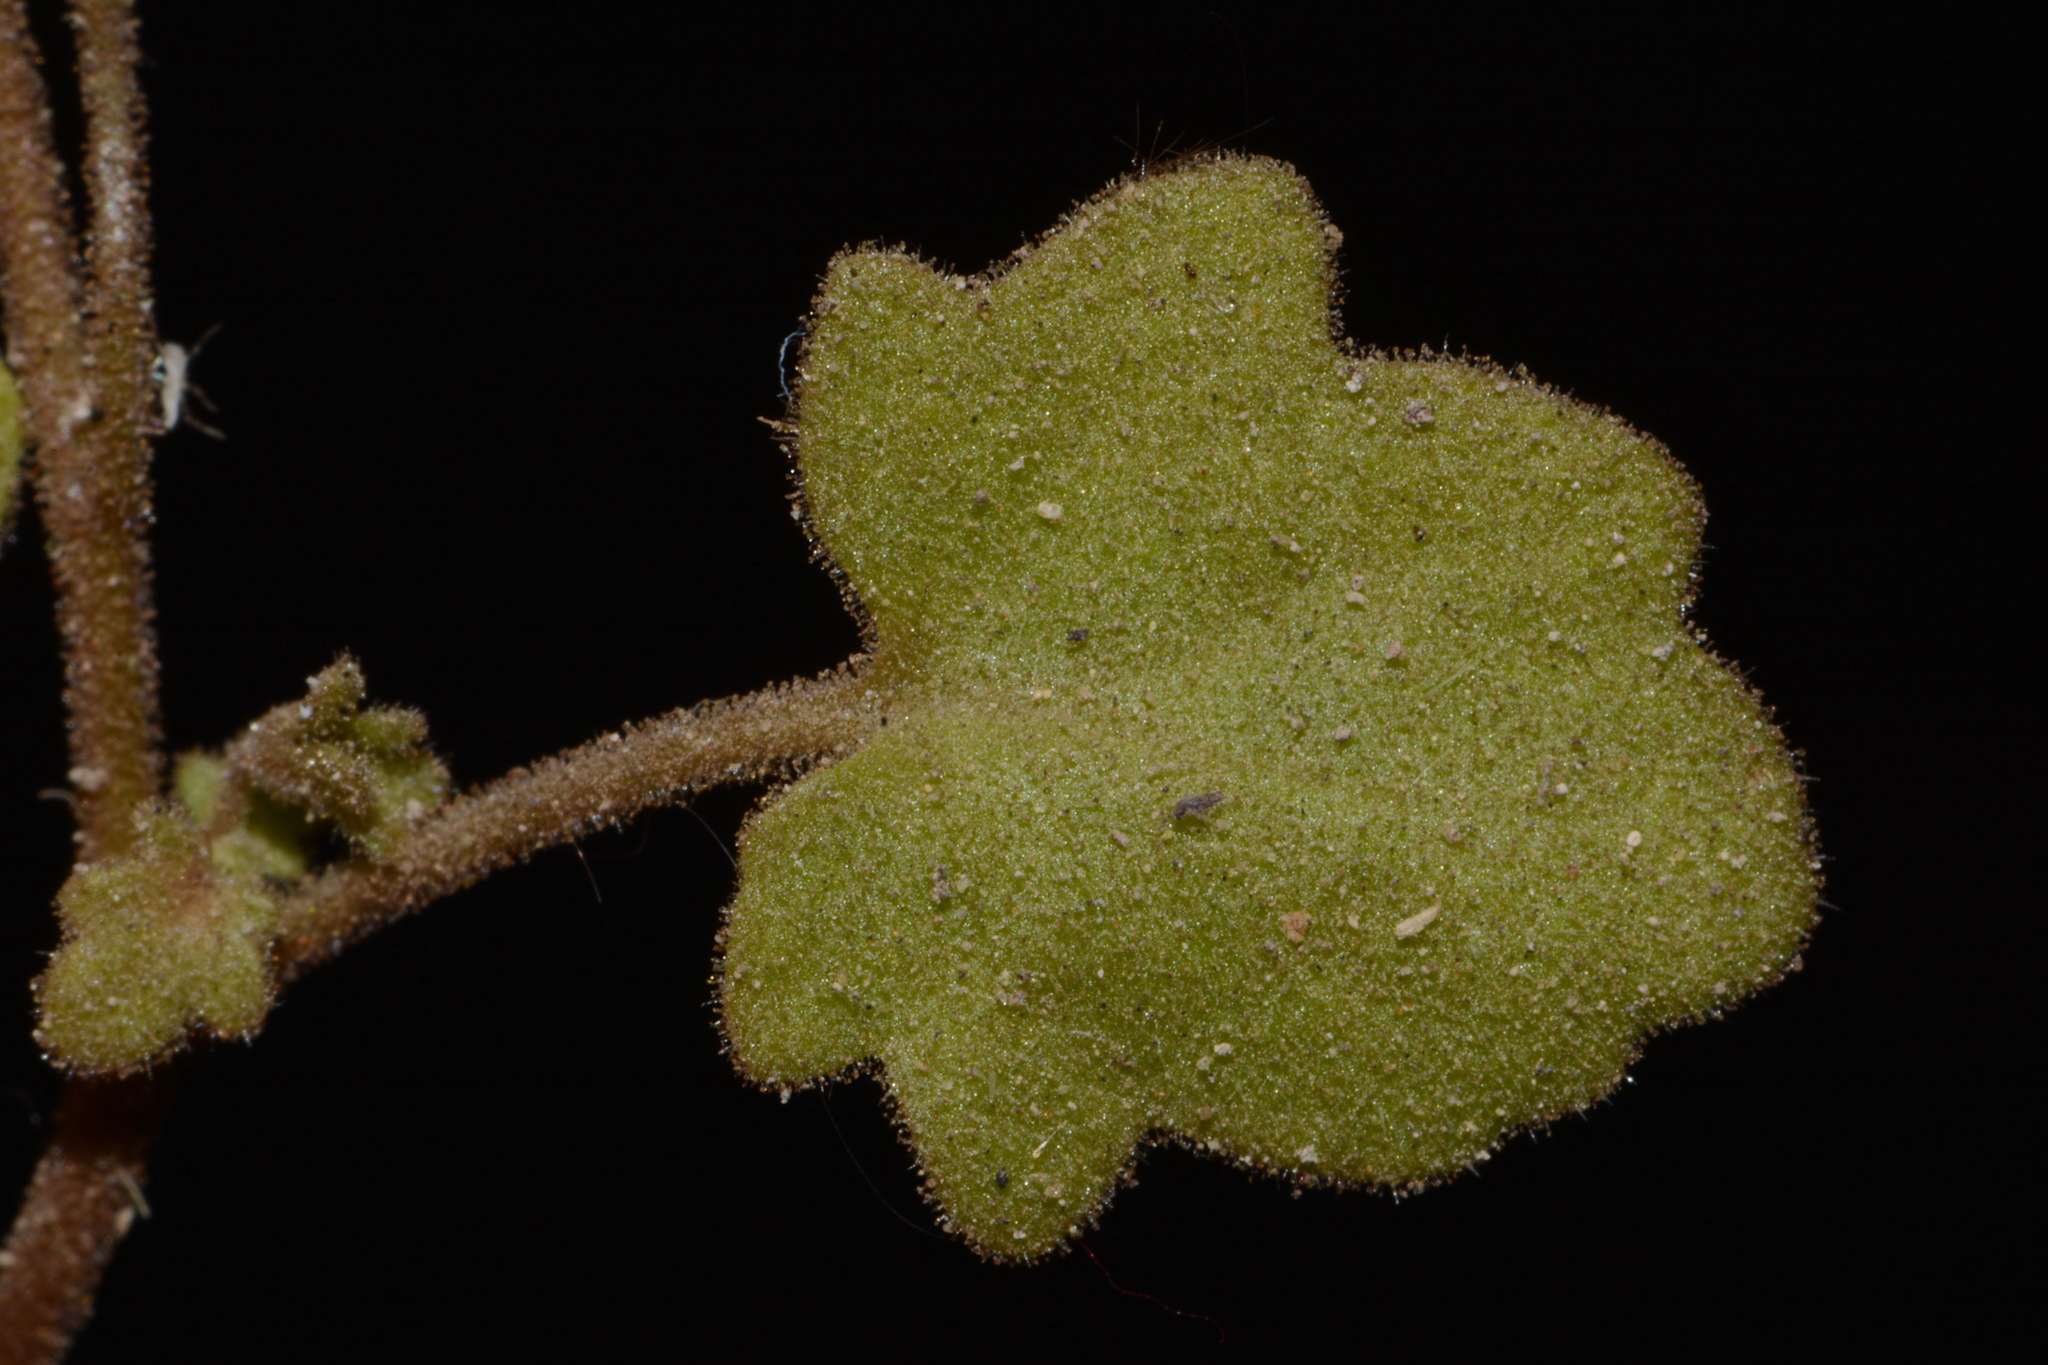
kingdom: Plantae
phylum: Tracheophyta
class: Magnoliopsida
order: Boraginales
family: Hydrophyllaceae
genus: Phacelia
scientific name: Phacelia filiformis
